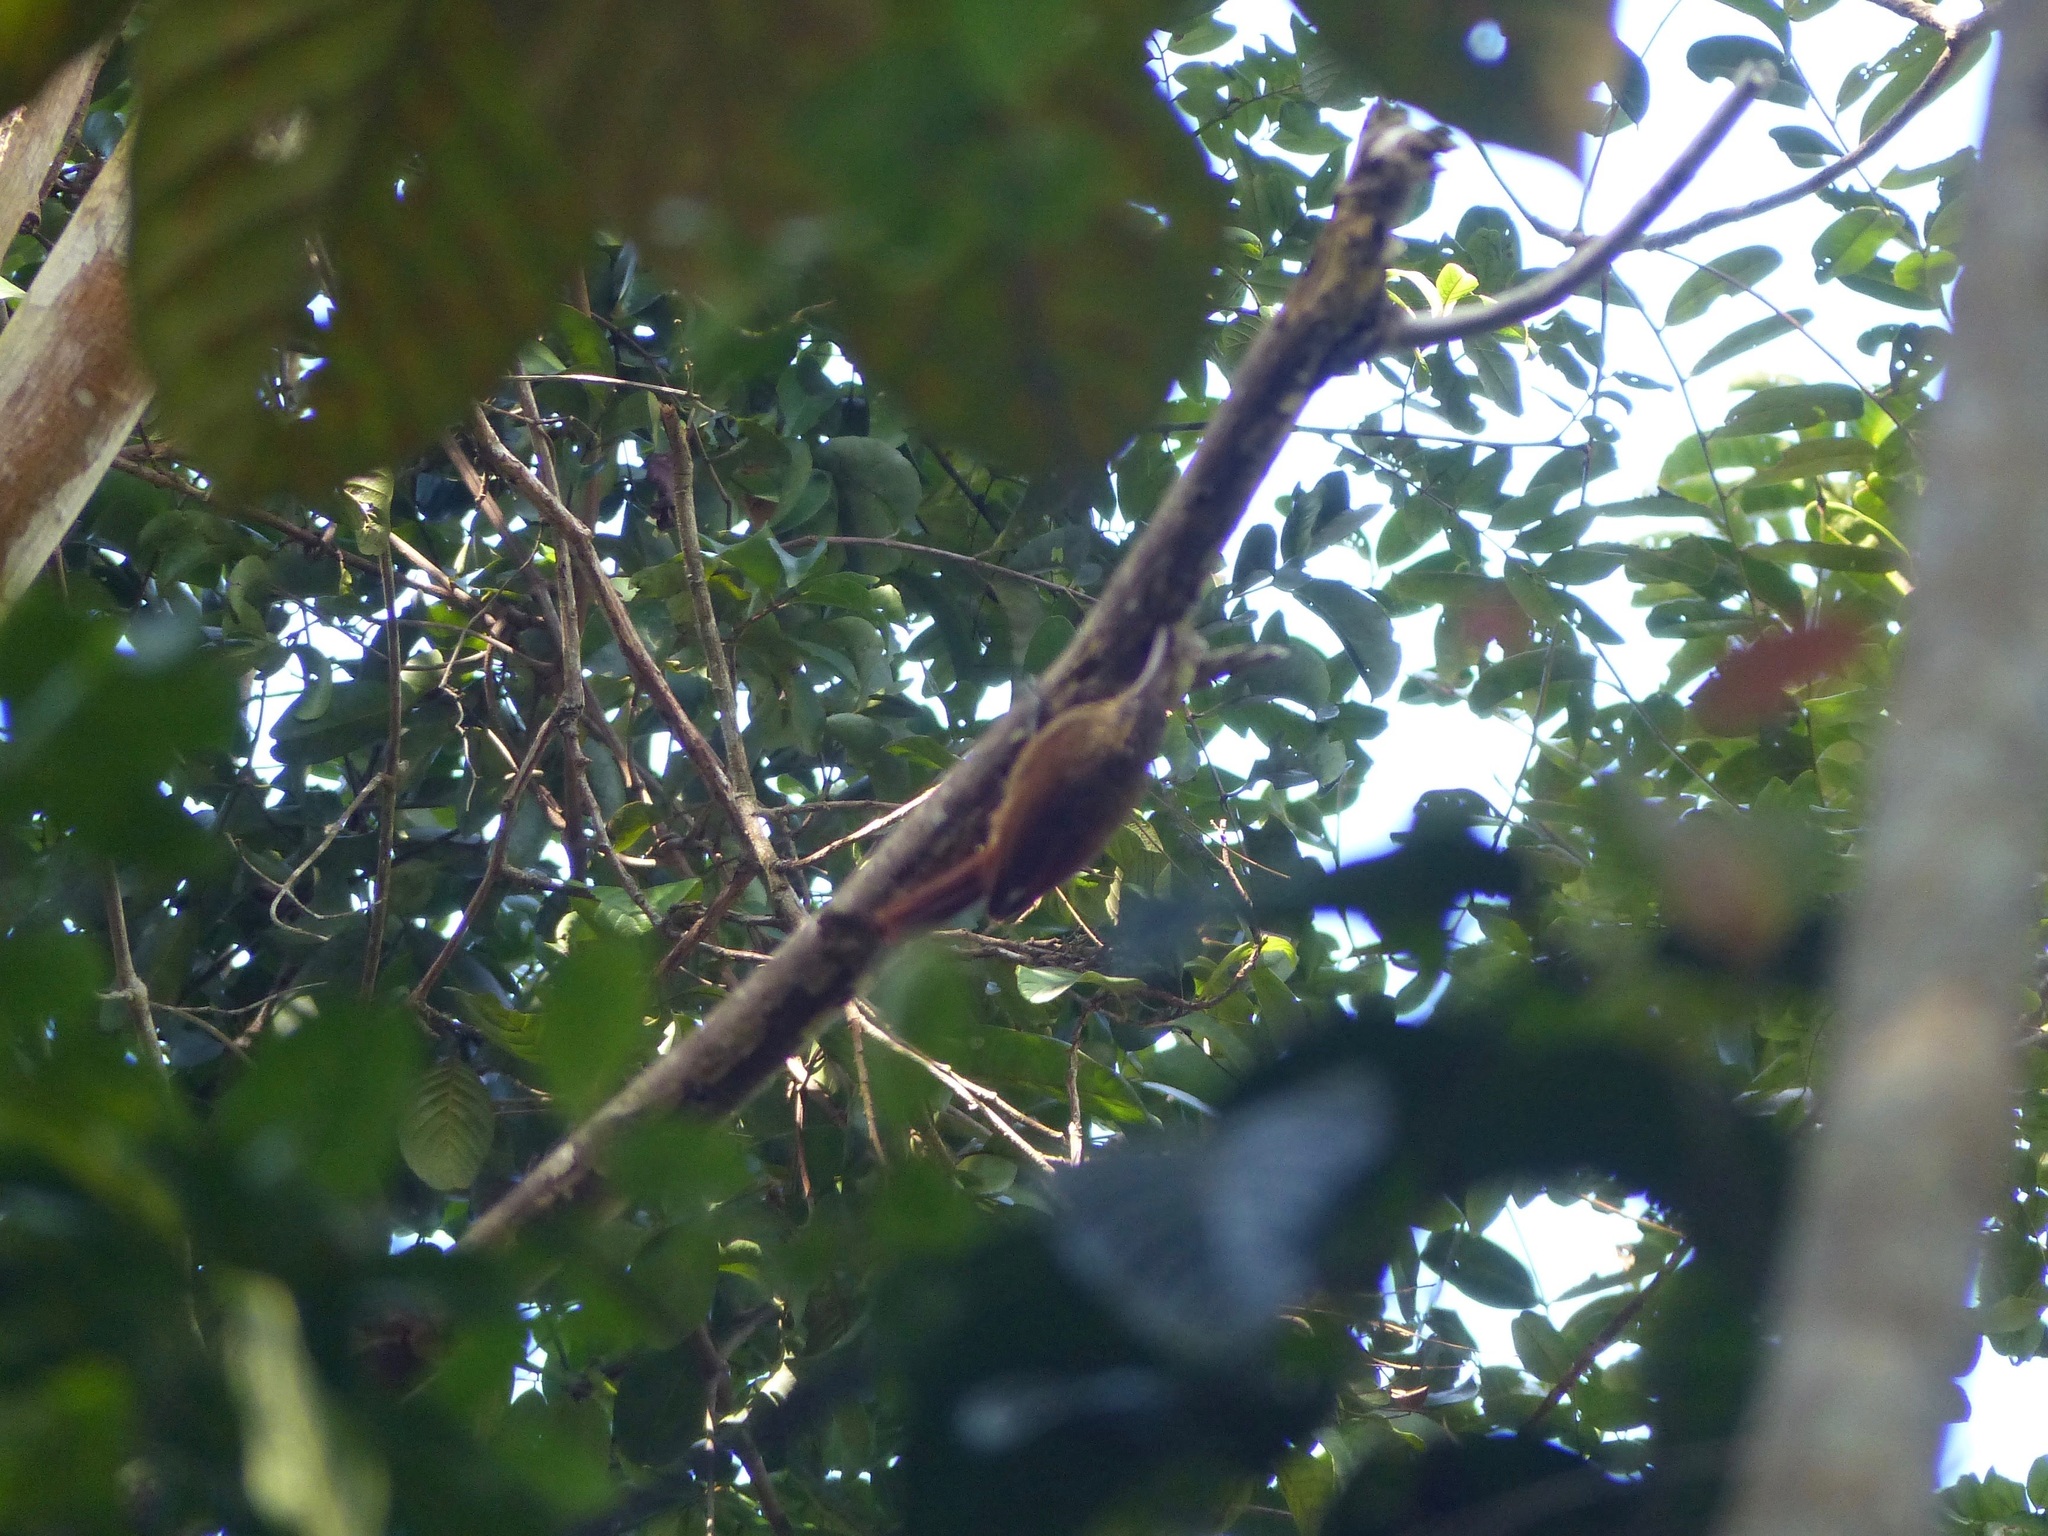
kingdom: Animalia
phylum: Chordata
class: Aves
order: Passeriformes
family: Furnariidae
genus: Xiphorhynchus
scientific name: Xiphorhynchus fuscus
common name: Lesser woodcreeper
